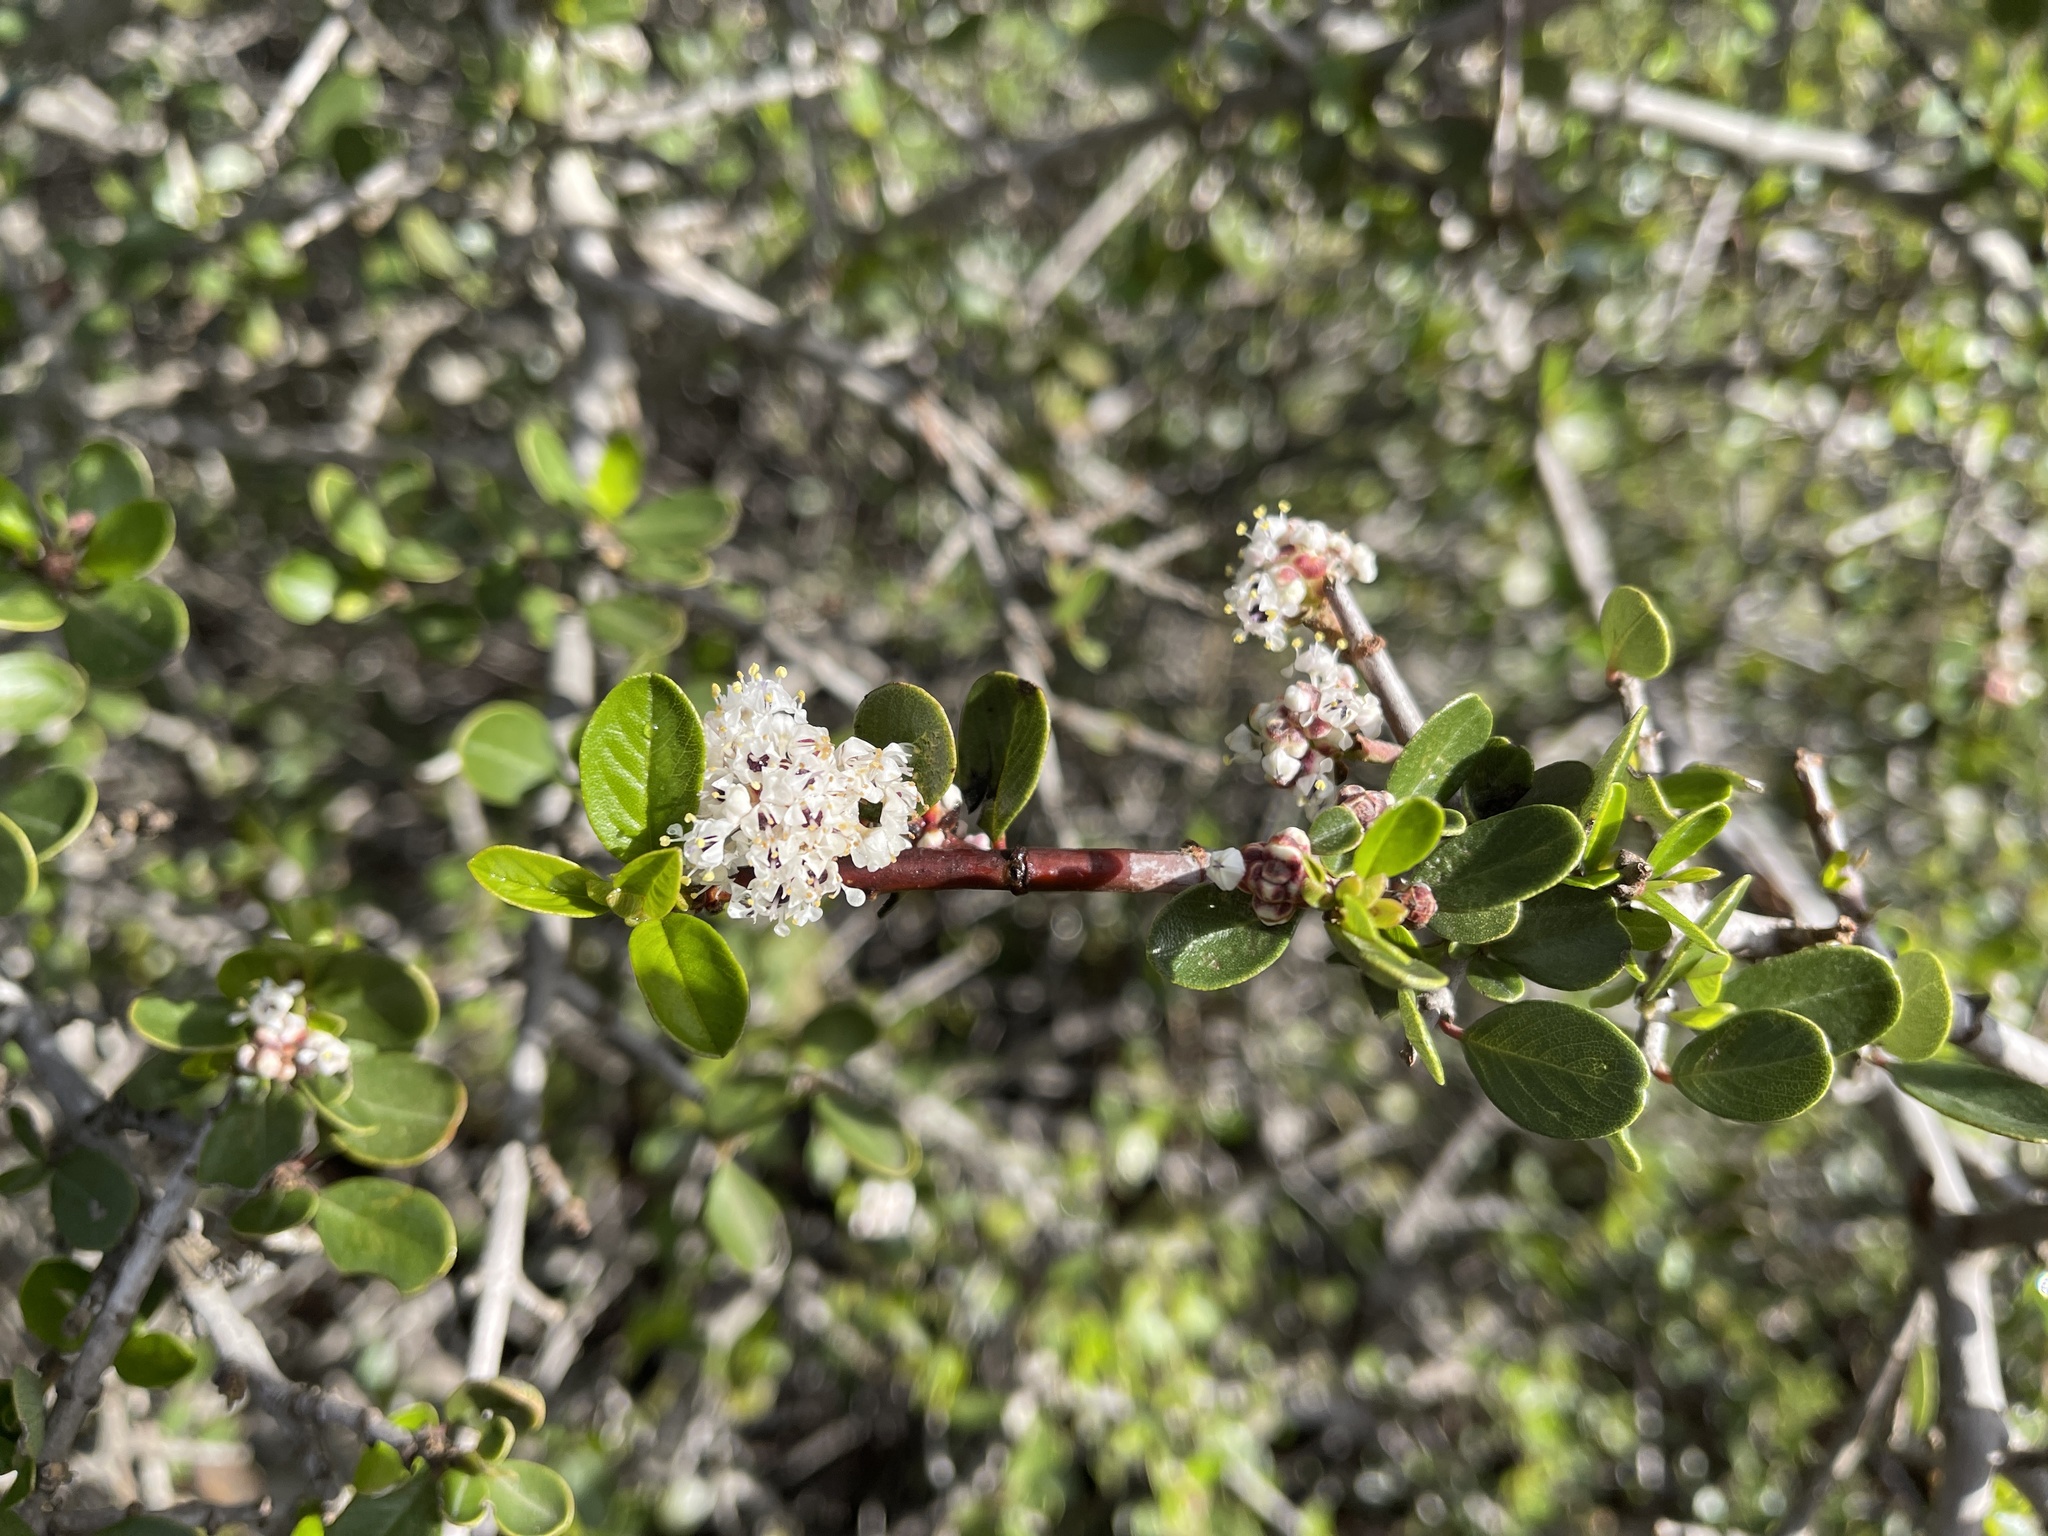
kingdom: Plantae
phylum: Tracheophyta
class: Magnoliopsida
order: Rosales
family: Rhamnaceae
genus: Ceanothus
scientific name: Ceanothus cuneatus
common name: Cuneate ceanothus
